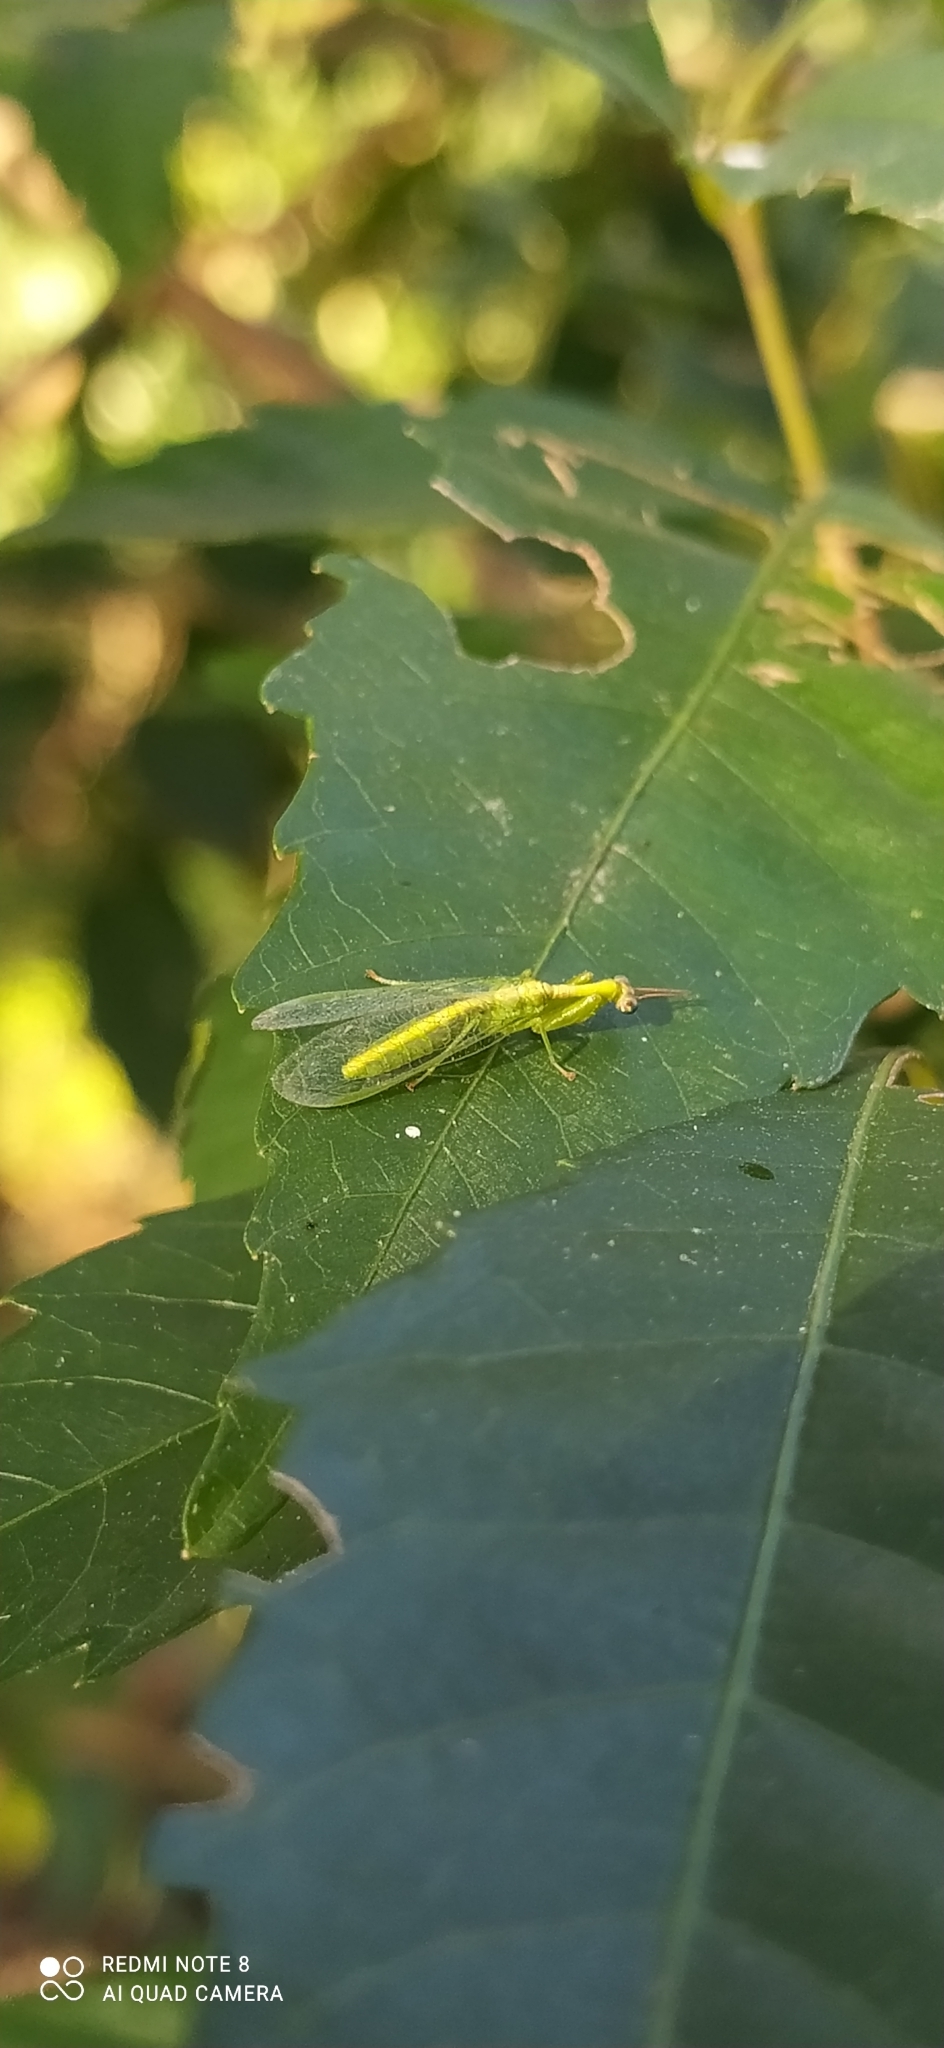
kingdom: Animalia
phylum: Arthropoda
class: Insecta
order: Neuroptera
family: Mantispidae
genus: Zeugomantispa
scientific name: Zeugomantispa minuta
